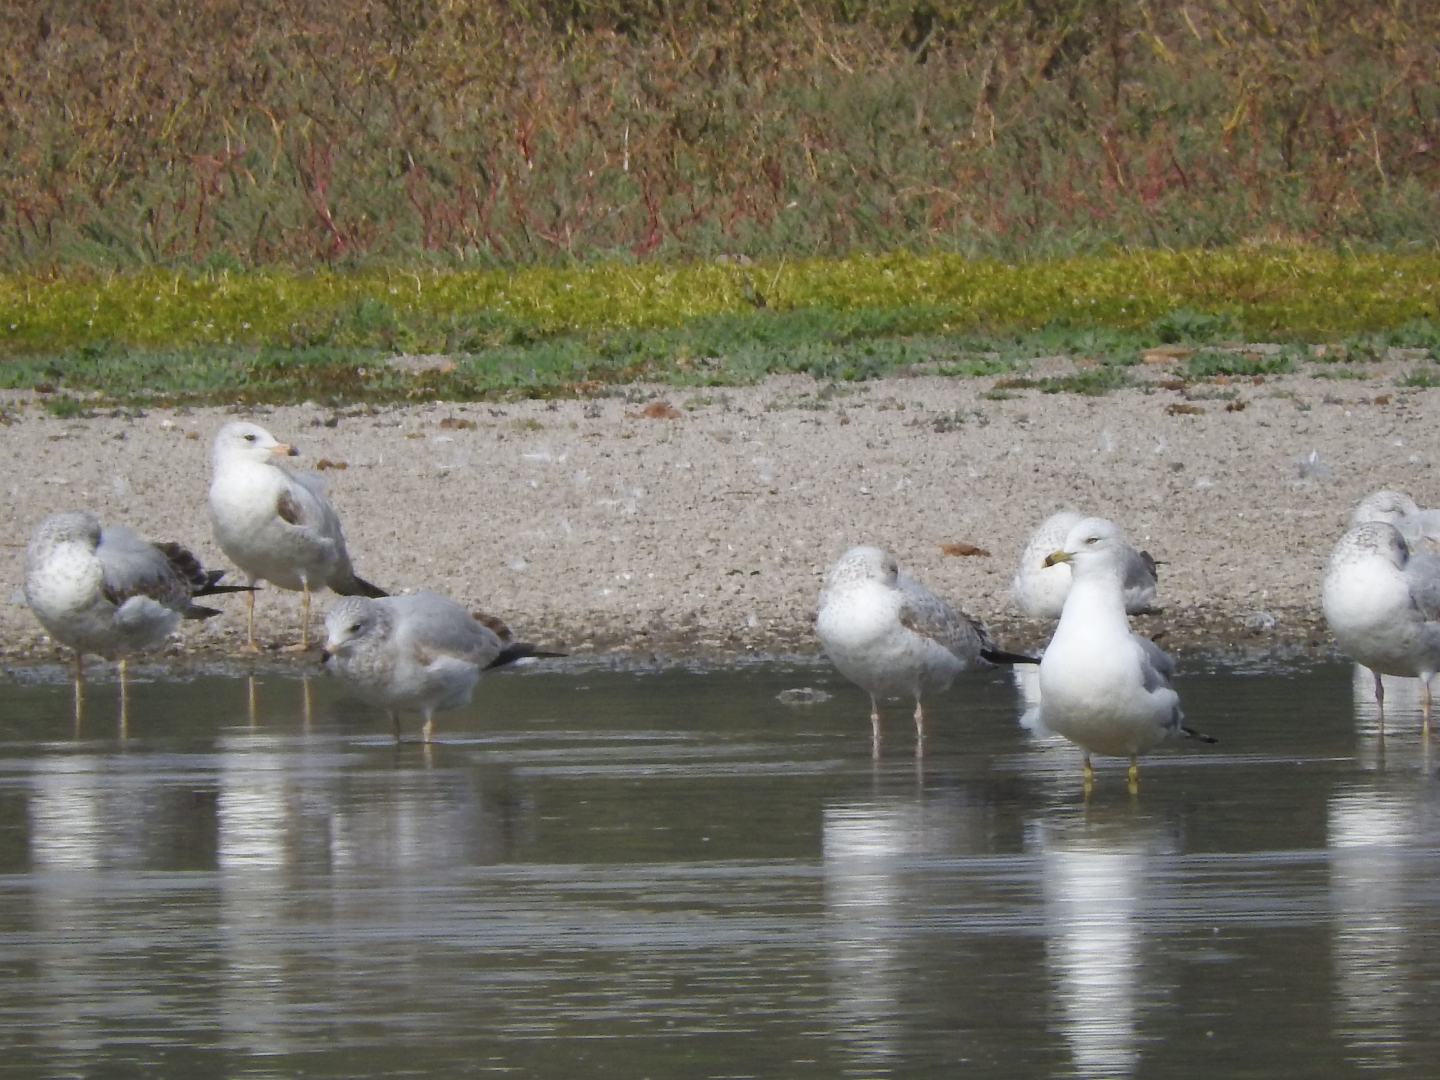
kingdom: Animalia
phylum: Chordata
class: Aves
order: Charadriiformes
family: Laridae
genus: Larus
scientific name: Larus delawarensis
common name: Ring-billed gull
